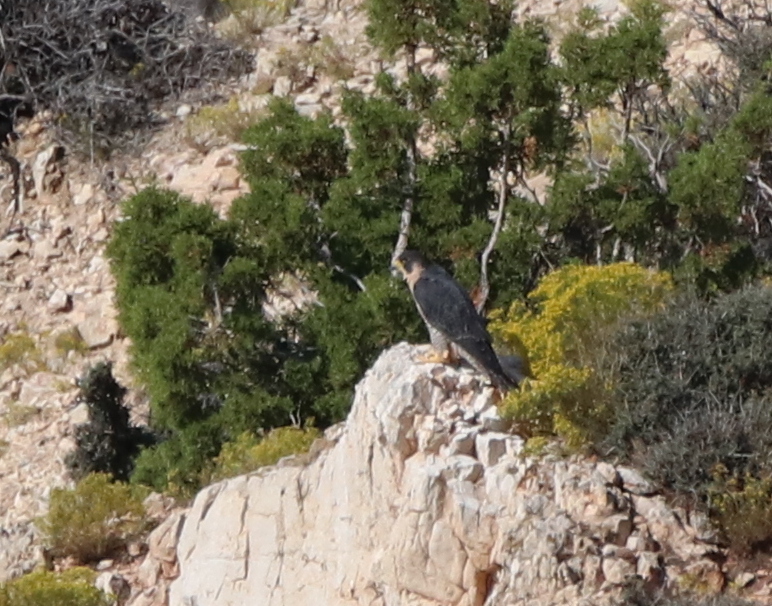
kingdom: Animalia
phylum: Chordata
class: Aves
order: Falconiformes
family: Falconidae
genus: Falco
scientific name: Falco peregrinus
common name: Peregrine falcon
